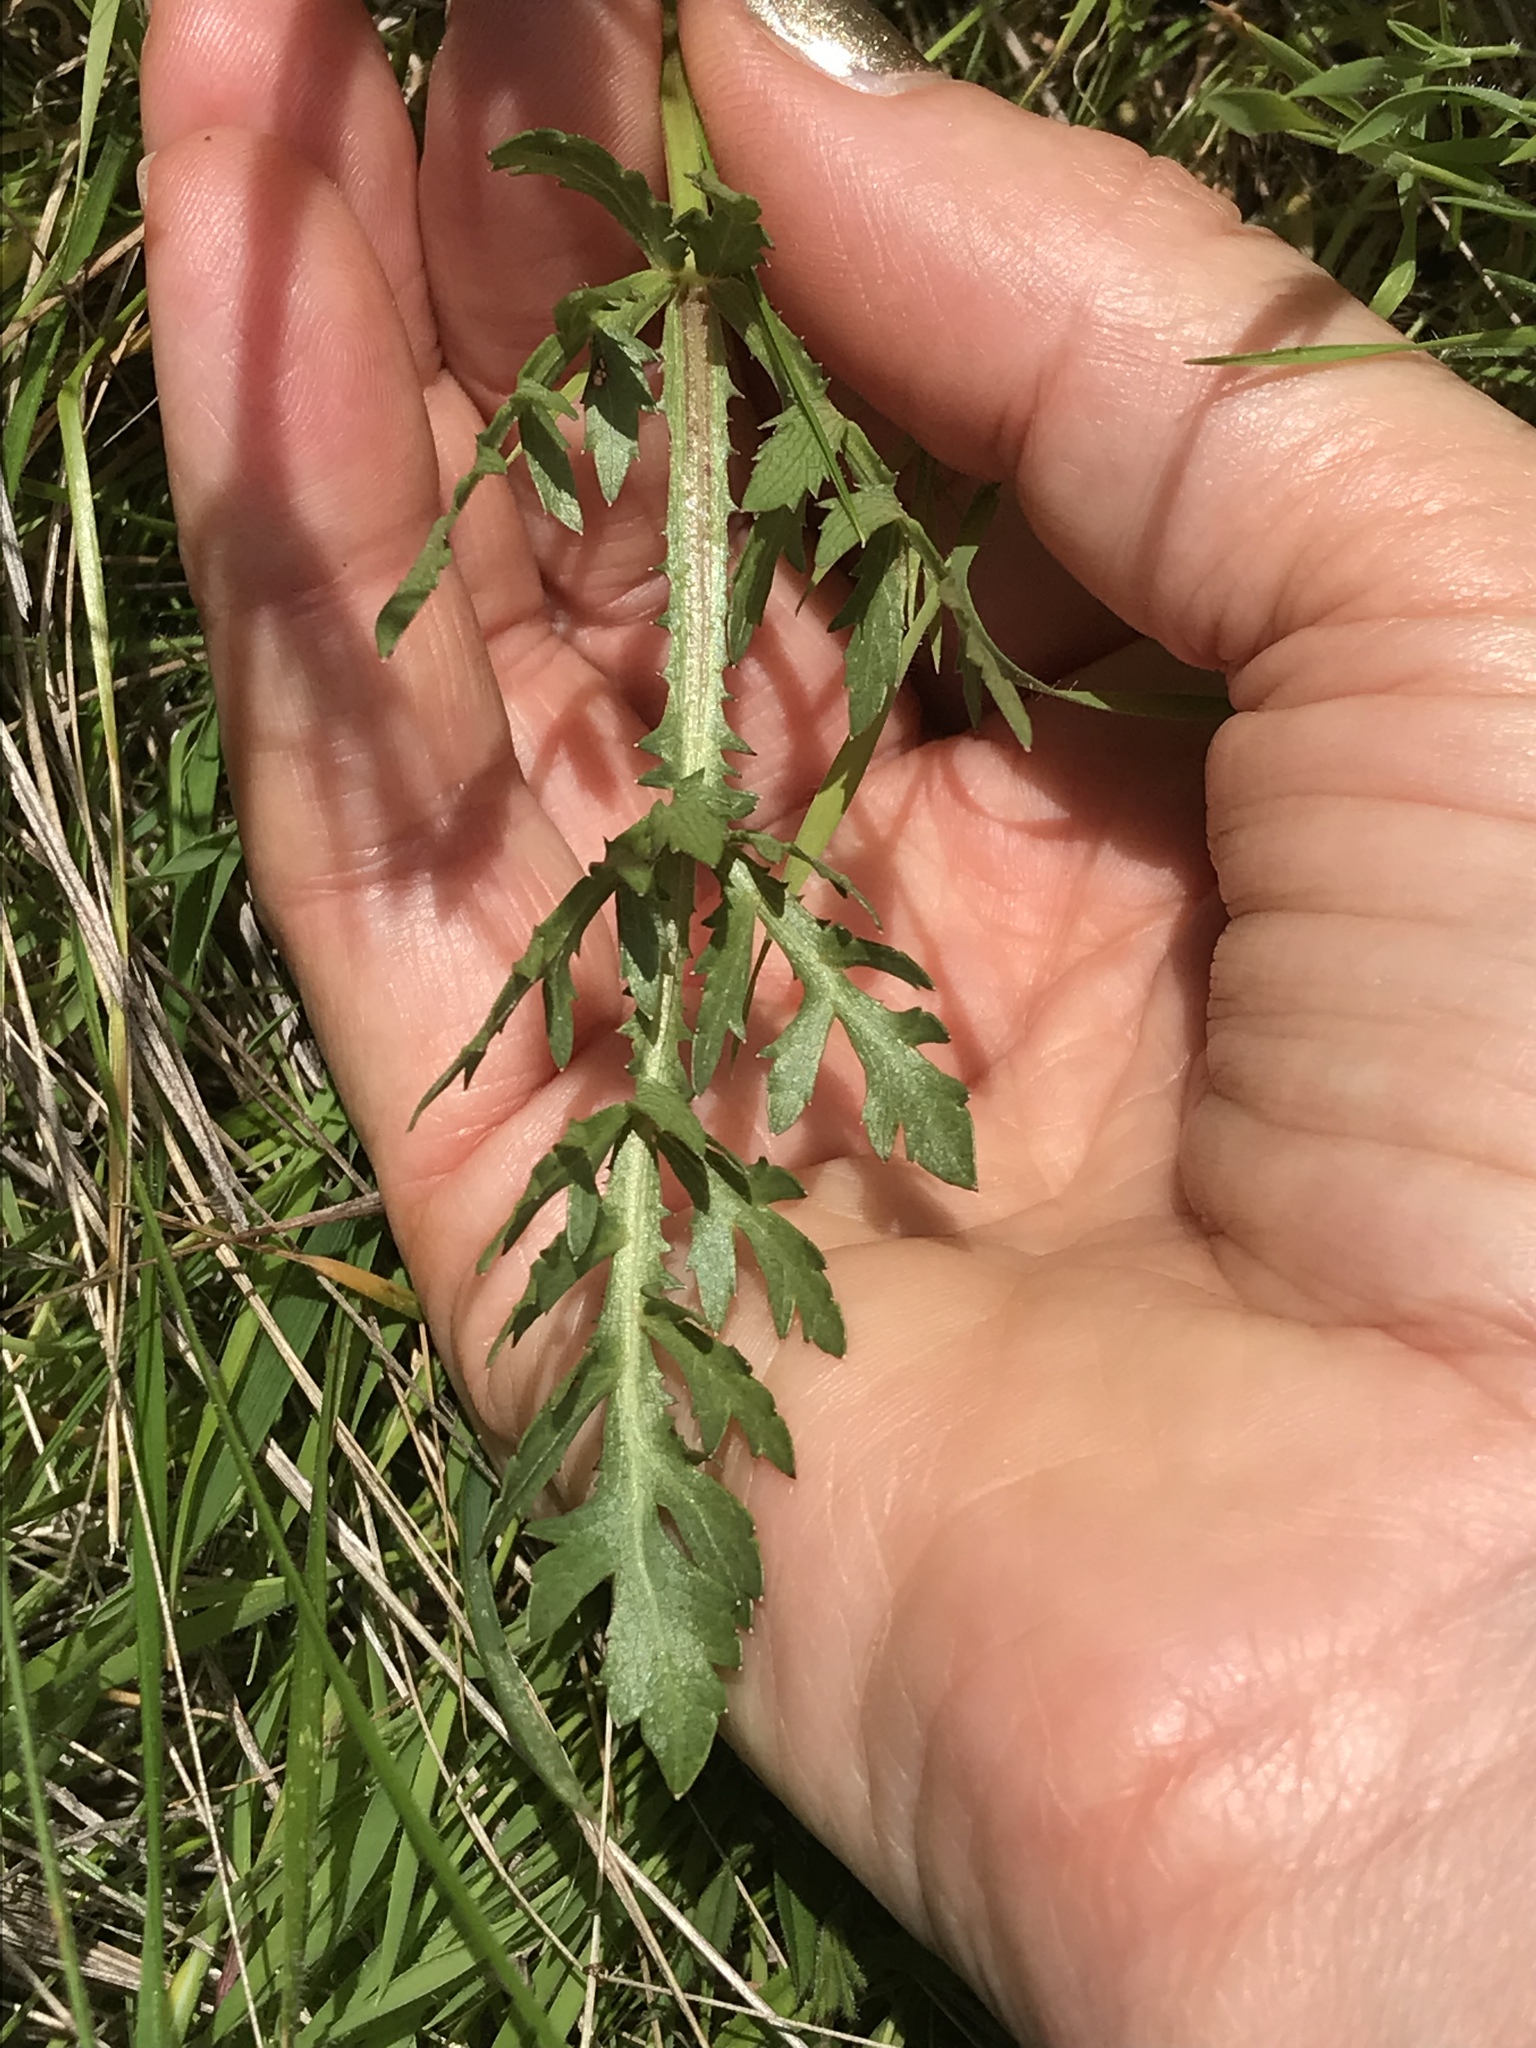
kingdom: Plantae
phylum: Tracheophyta
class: Magnoliopsida
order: Apiales
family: Apiaceae
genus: Sanicula
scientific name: Sanicula bipinnatifida
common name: Shoe-buttons
